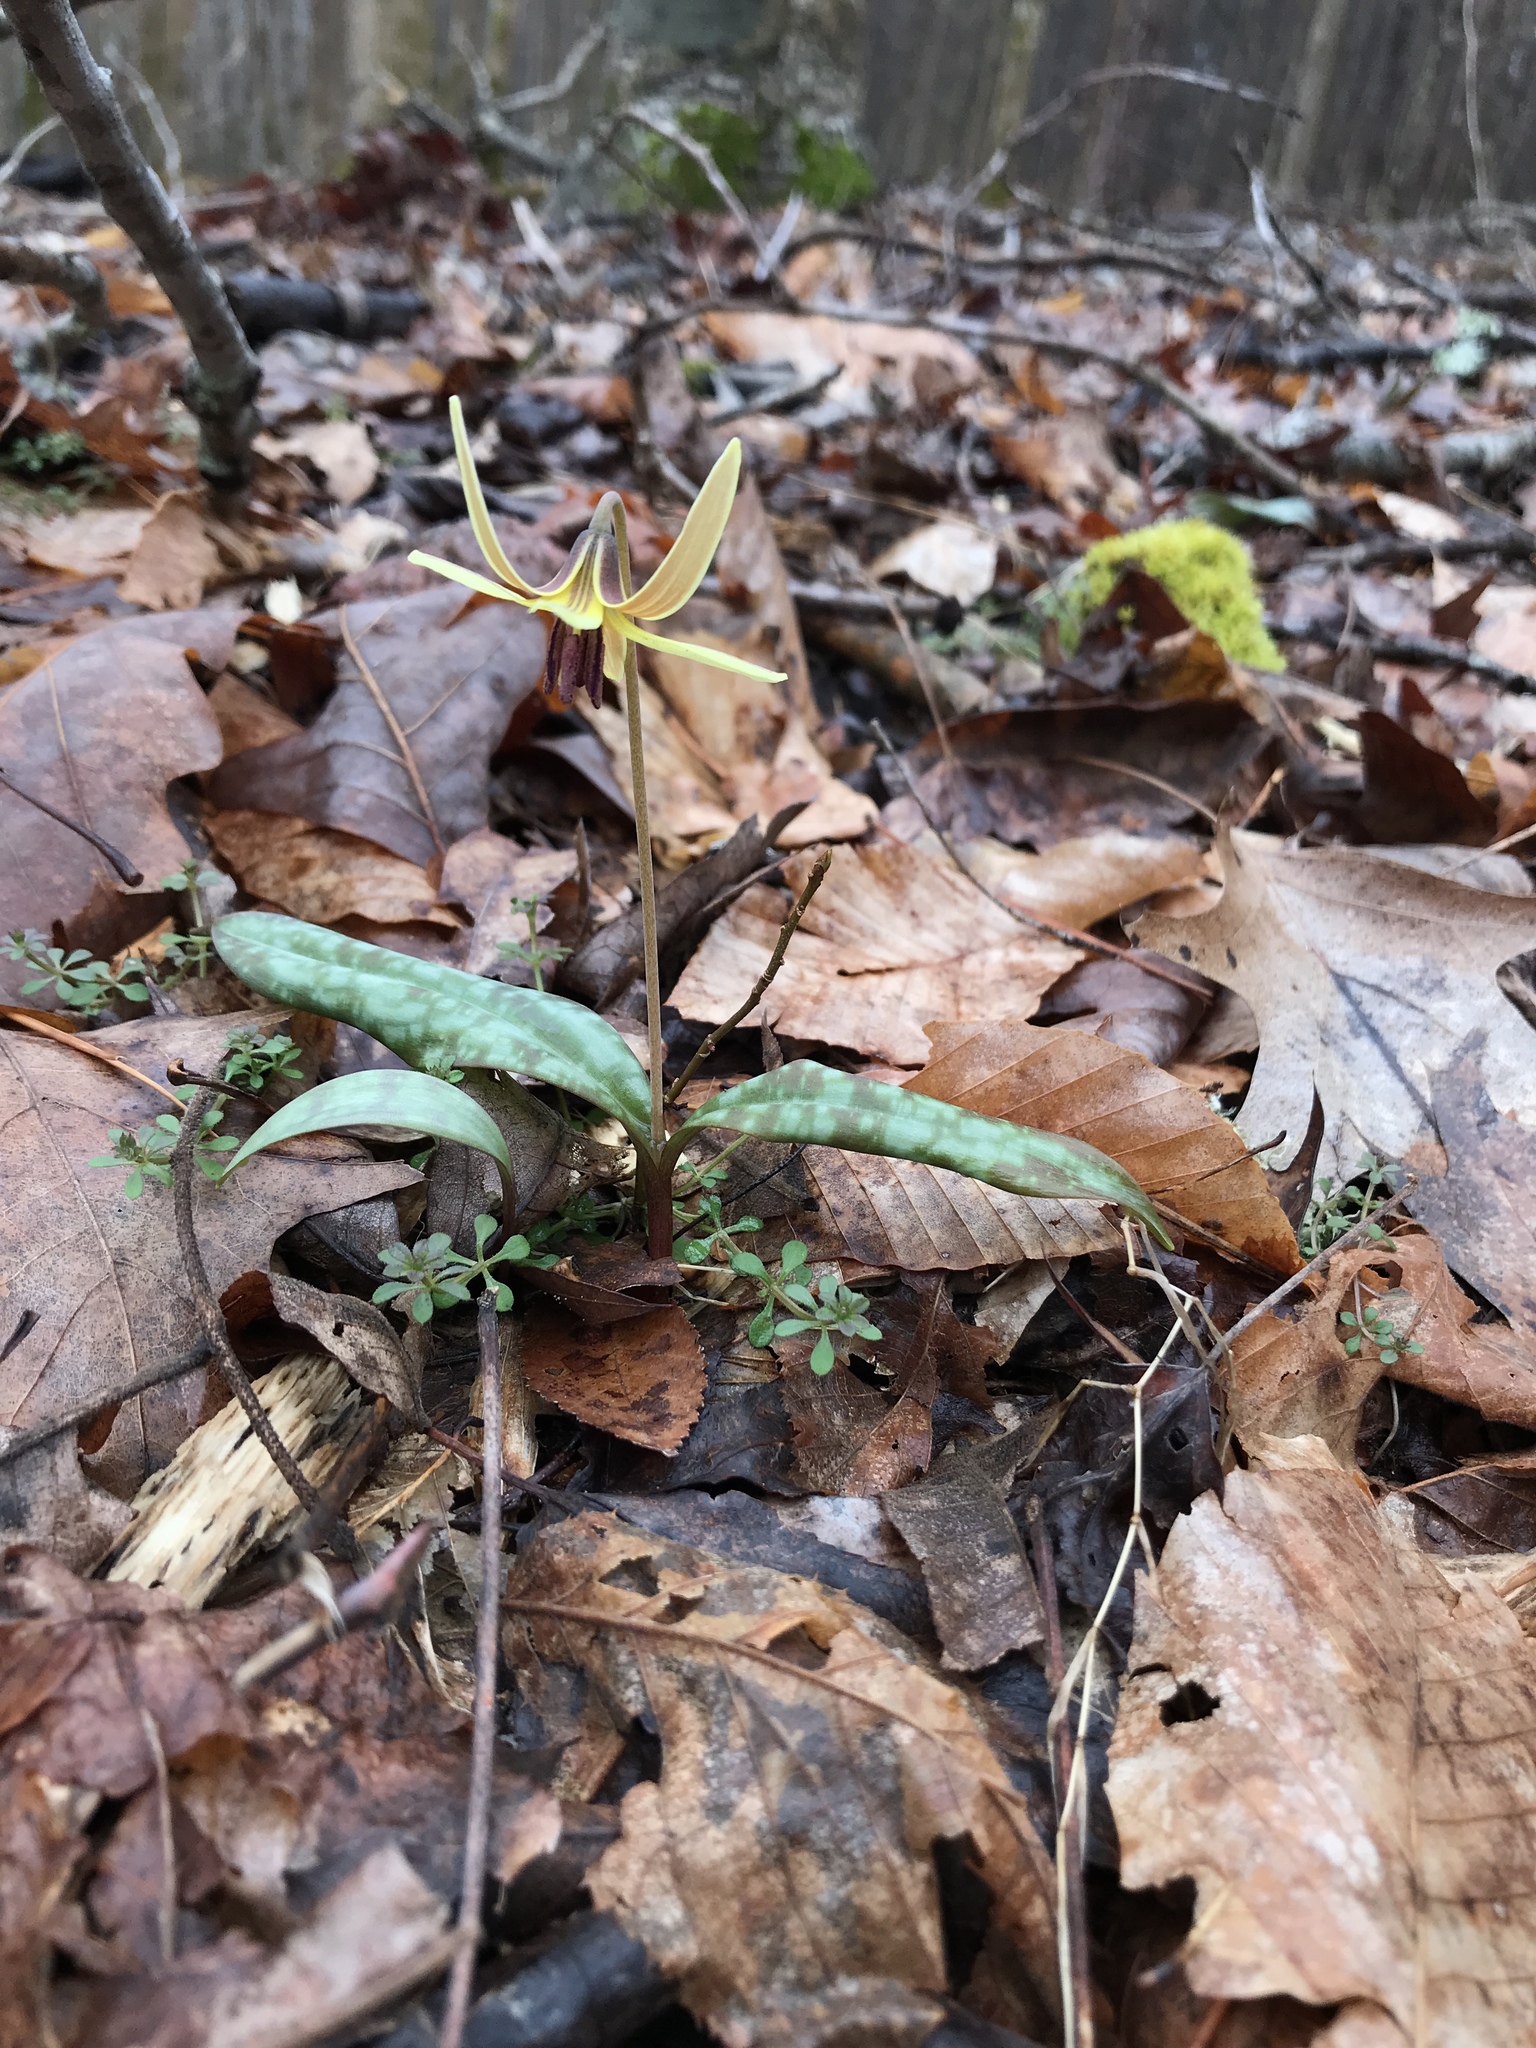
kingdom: Plantae
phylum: Tracheophyta
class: Liliopsida
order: Liliales
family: Liliaceae
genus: Erythronium
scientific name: Erythronium umbilicatum
